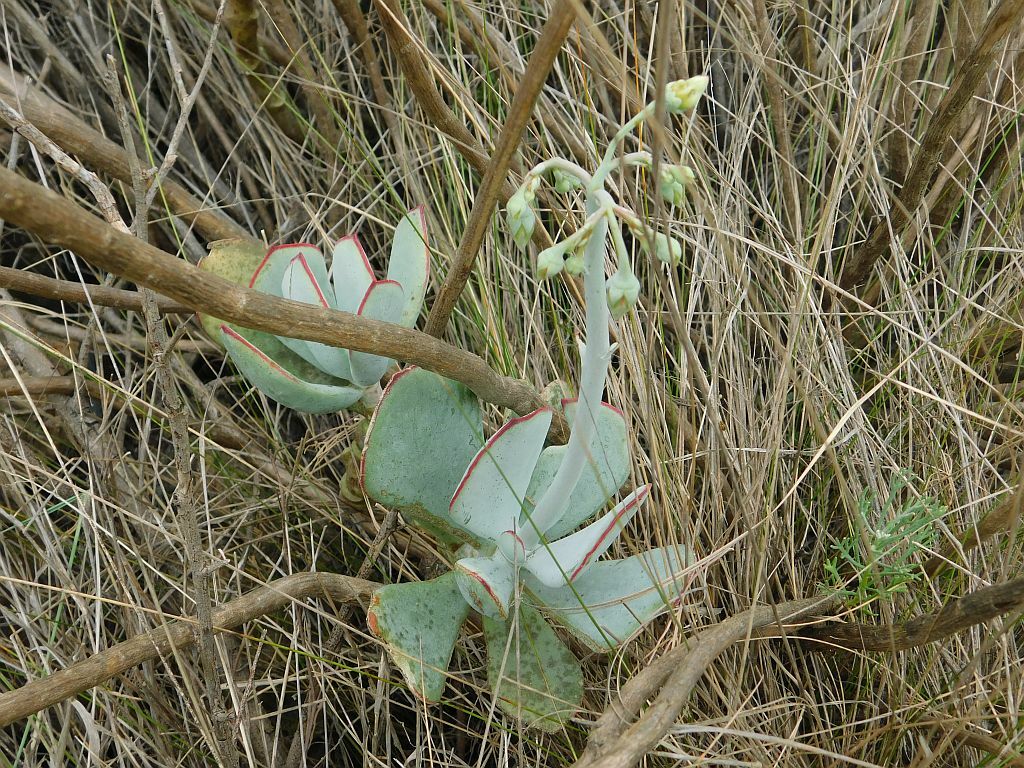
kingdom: Plantae
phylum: Tracheophyta
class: Magnoliopsida
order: Saxifragales
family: Crassulaceae
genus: Cotyledon
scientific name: Cotyledon orbiculata
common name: Pig's ear
